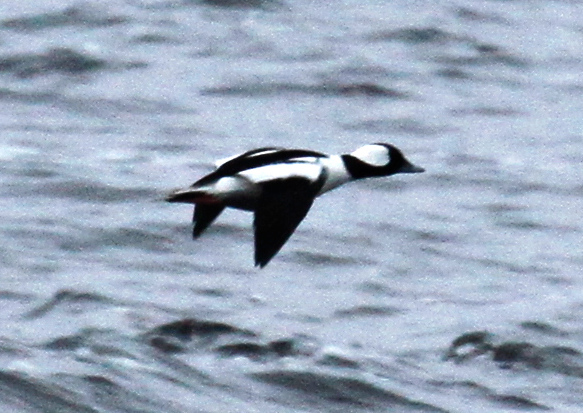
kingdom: Animalia
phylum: Chordata
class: Aves
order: Anseriformes
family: Anatidae
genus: Bucephala
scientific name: Bucephala albeola
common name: Bufflehead
